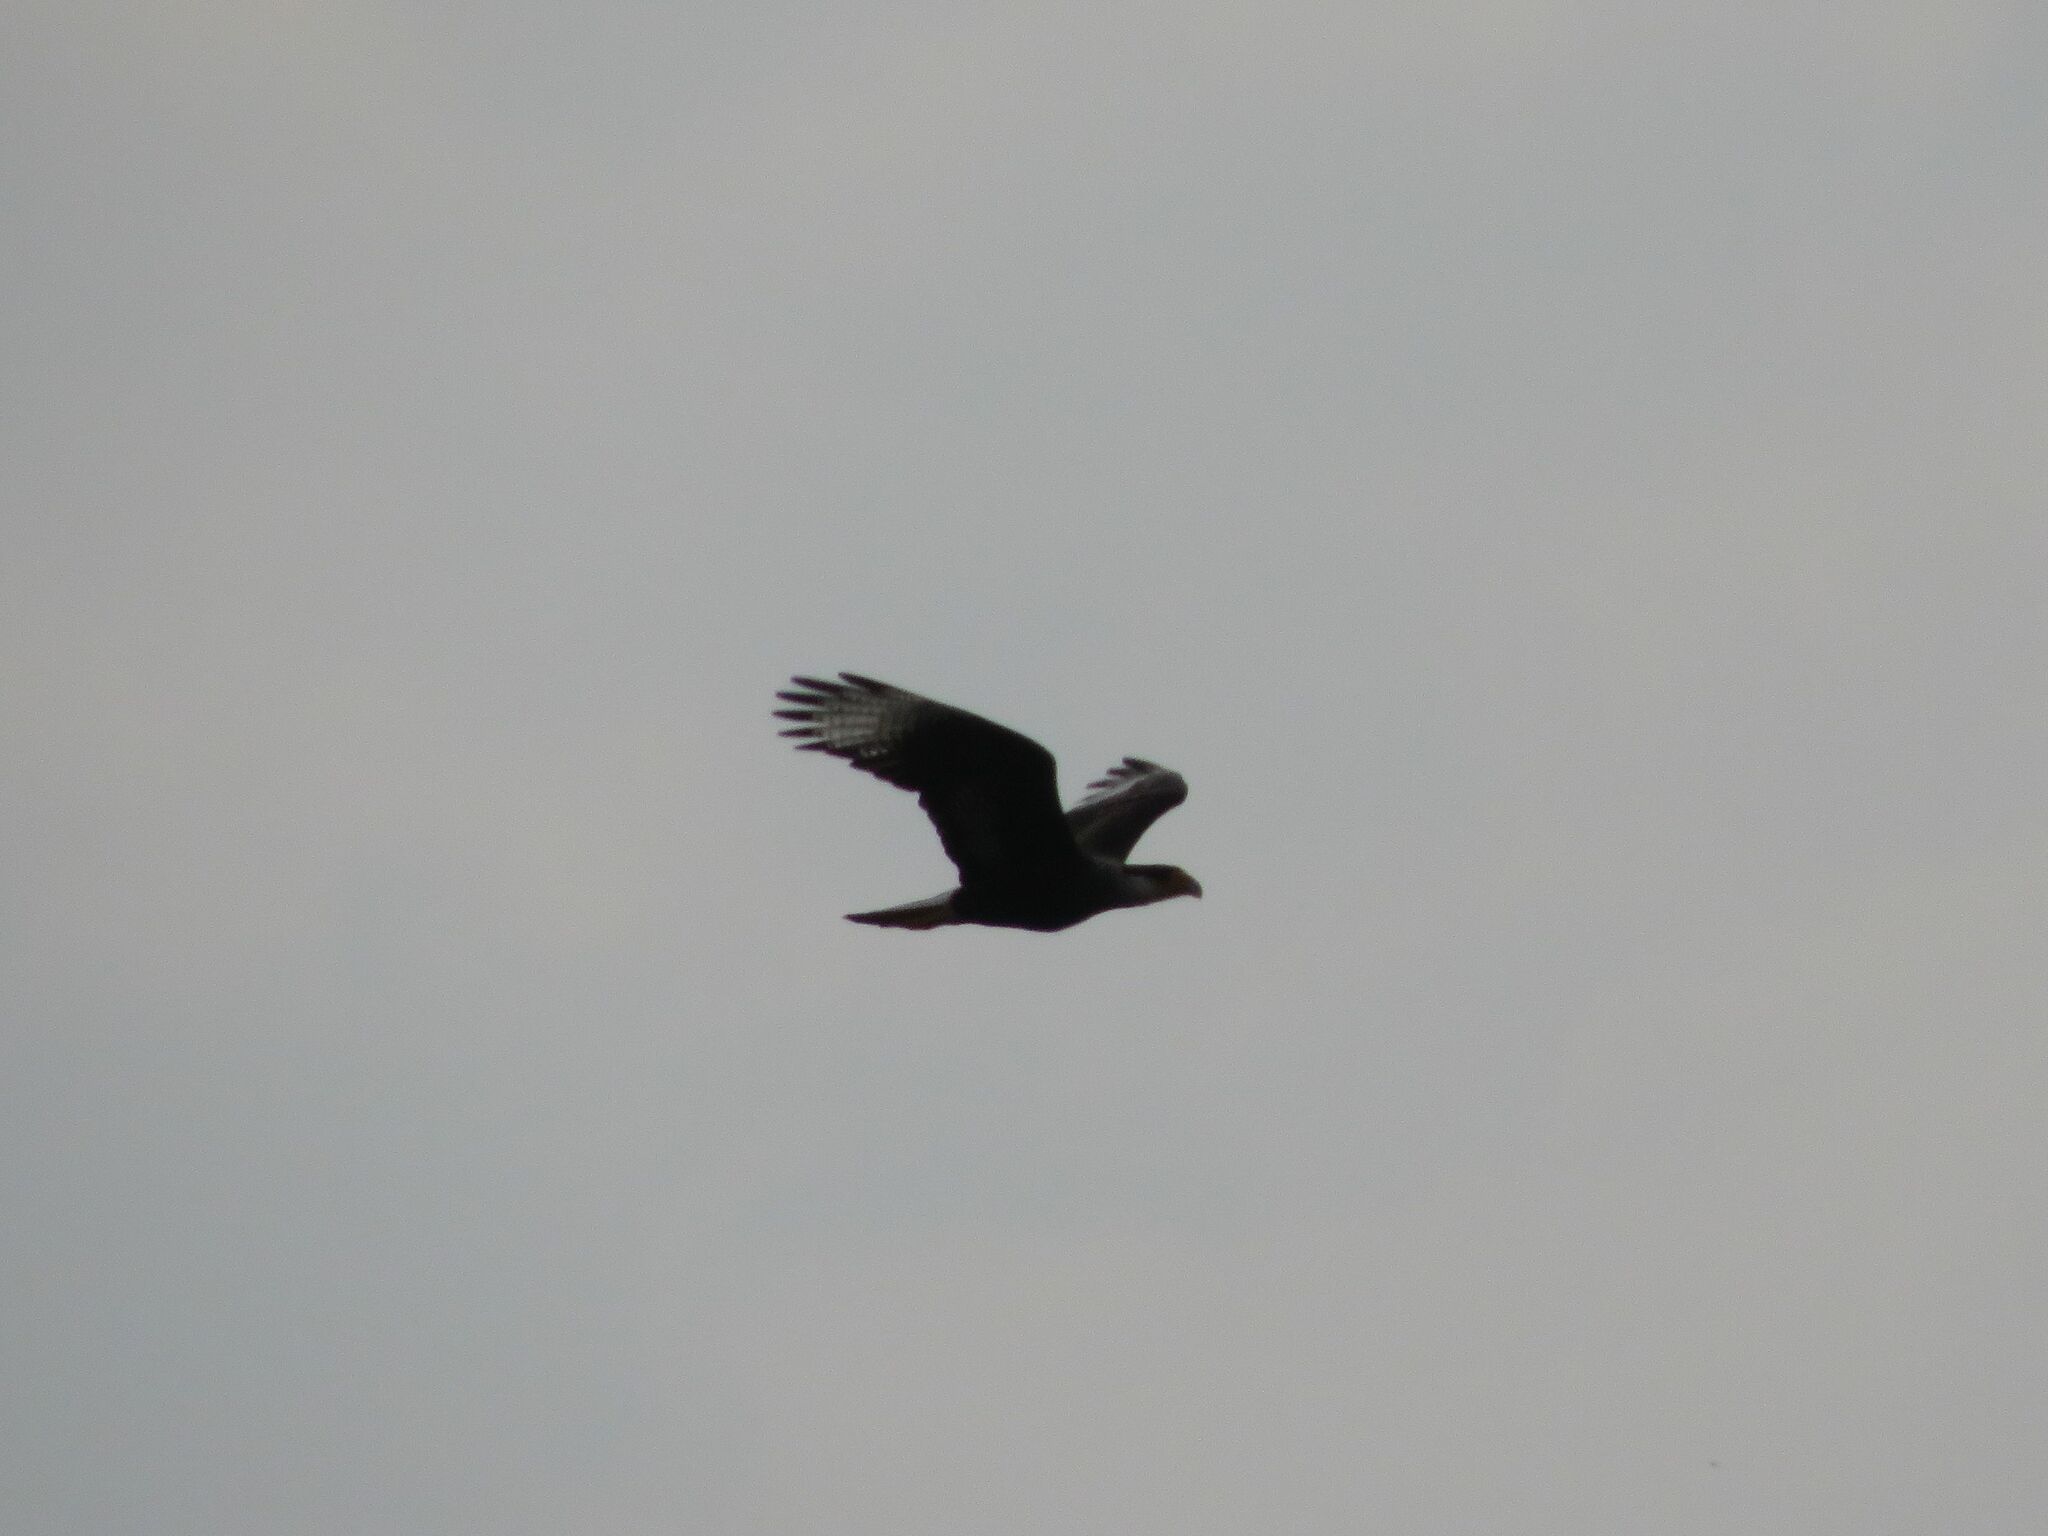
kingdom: Animalia
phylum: Chordata
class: Aves
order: Falconiformes
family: Falconidae
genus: Caracara
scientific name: Caracara plancus
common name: Southern caracara
